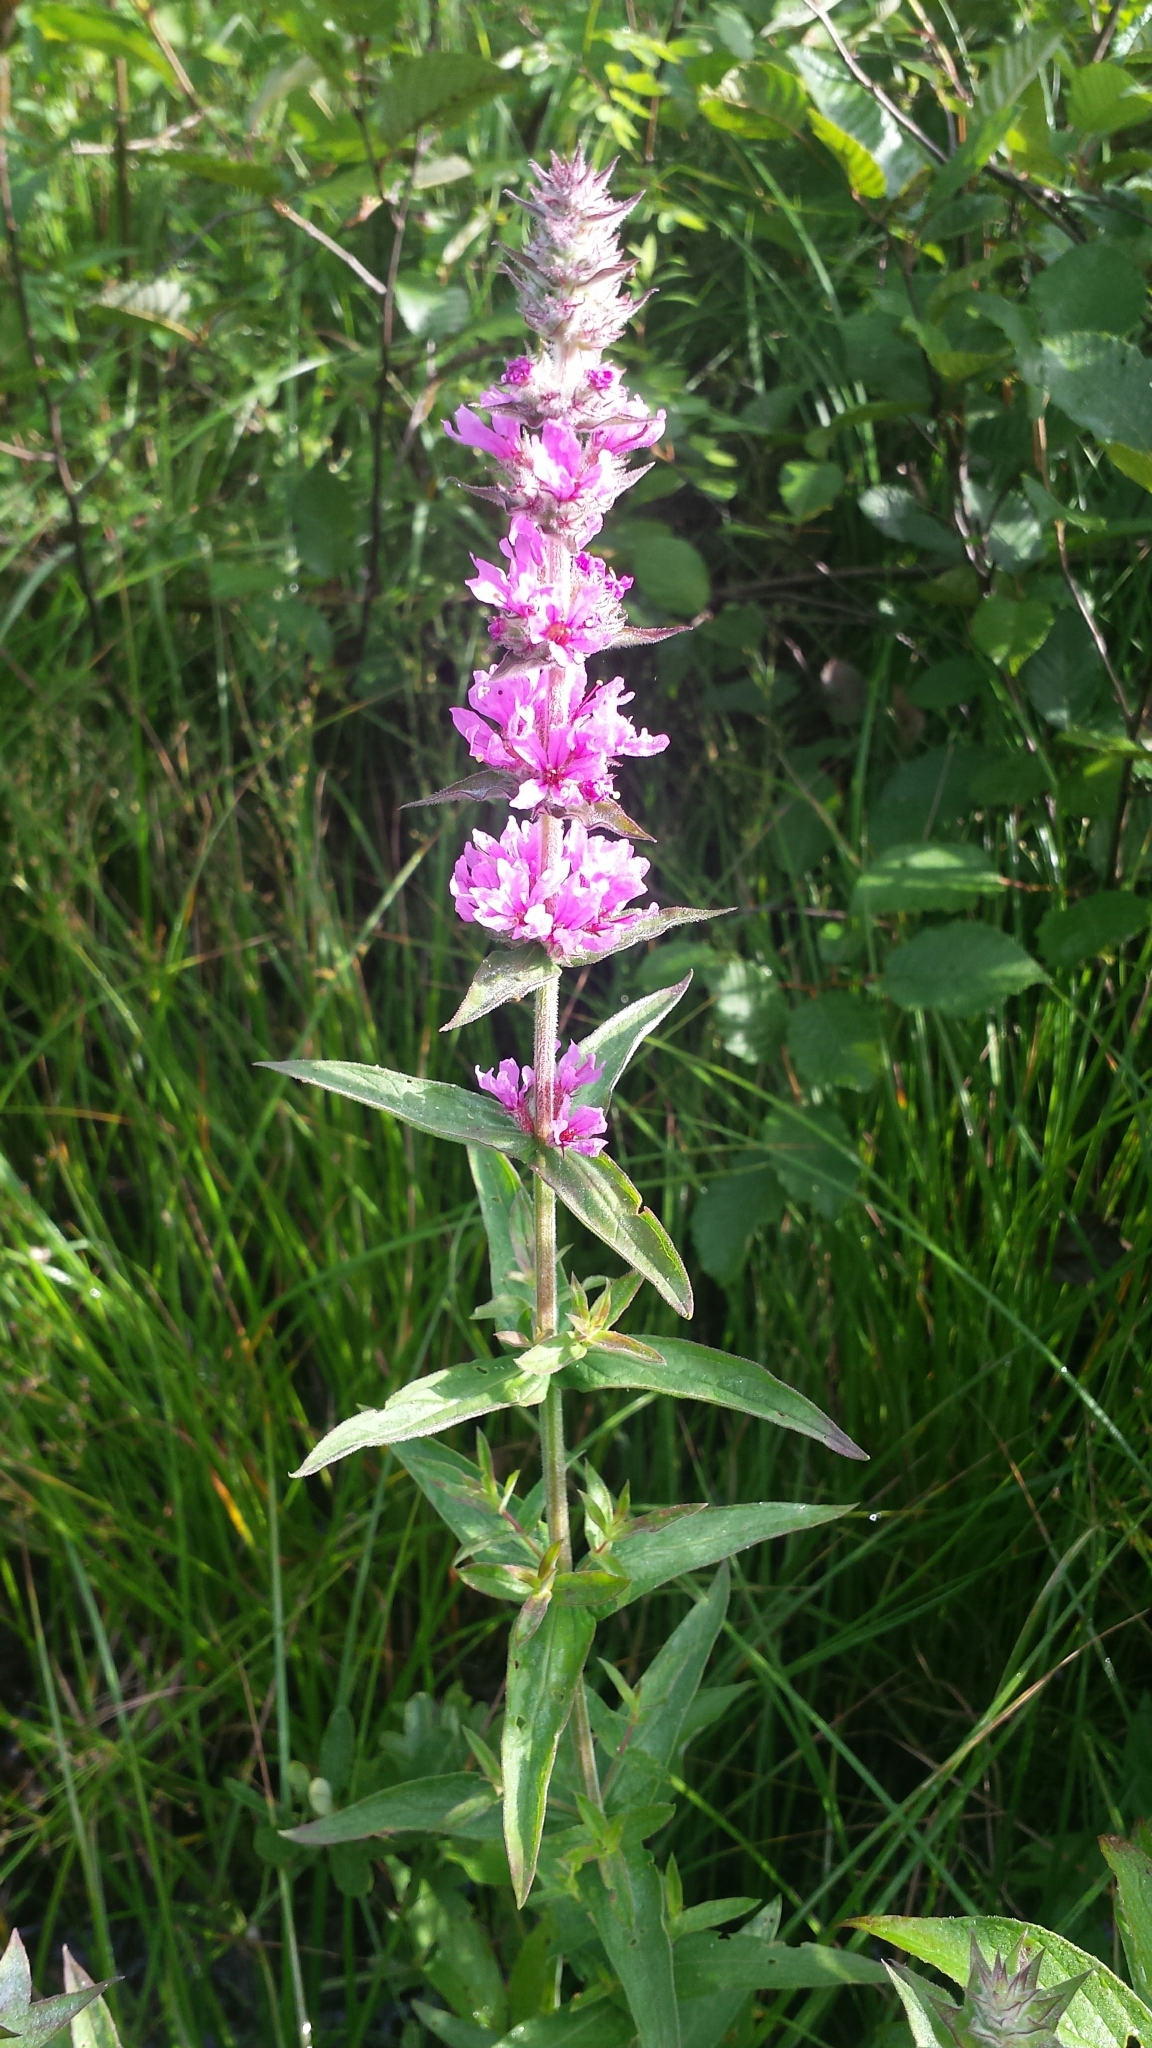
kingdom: Plantae
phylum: Tracheophyta
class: Magnoliopsida
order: Myrtales
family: Lythraceae
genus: Lythrum
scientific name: Lythrum salicaria
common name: Purple loosestrife
